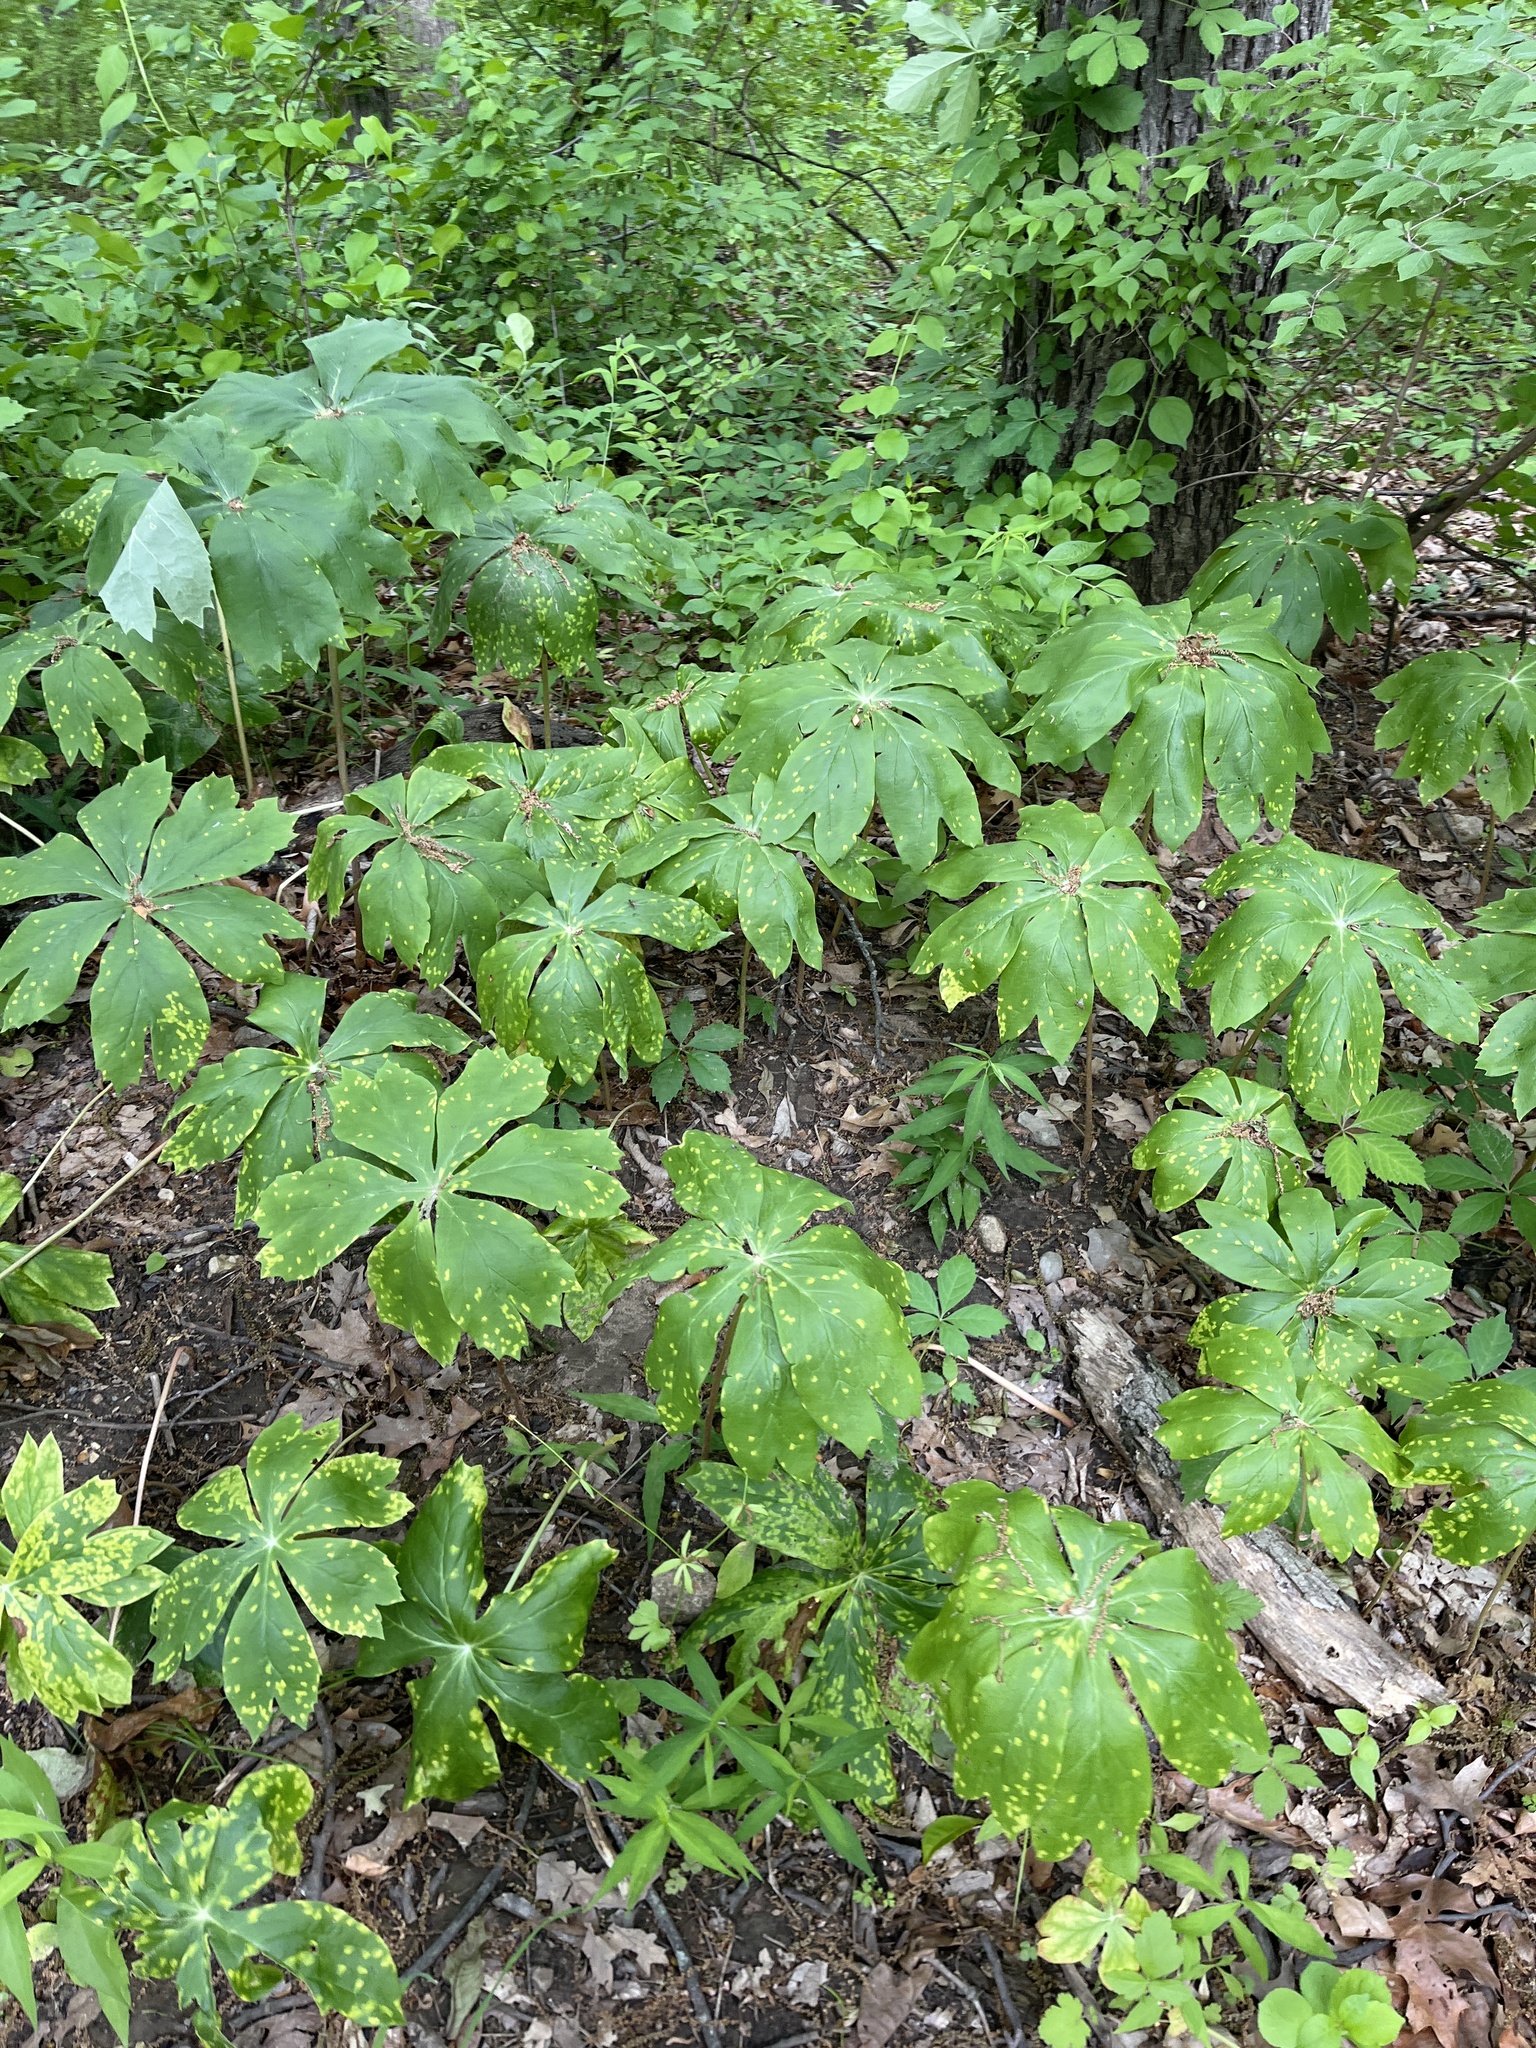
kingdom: Plantae
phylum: Tracheophyta
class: Magnoliopsida
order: Ranunculales
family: Berberidaceae
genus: Podophyllum
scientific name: Podophyllum peltatum
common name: Wild mandrake
